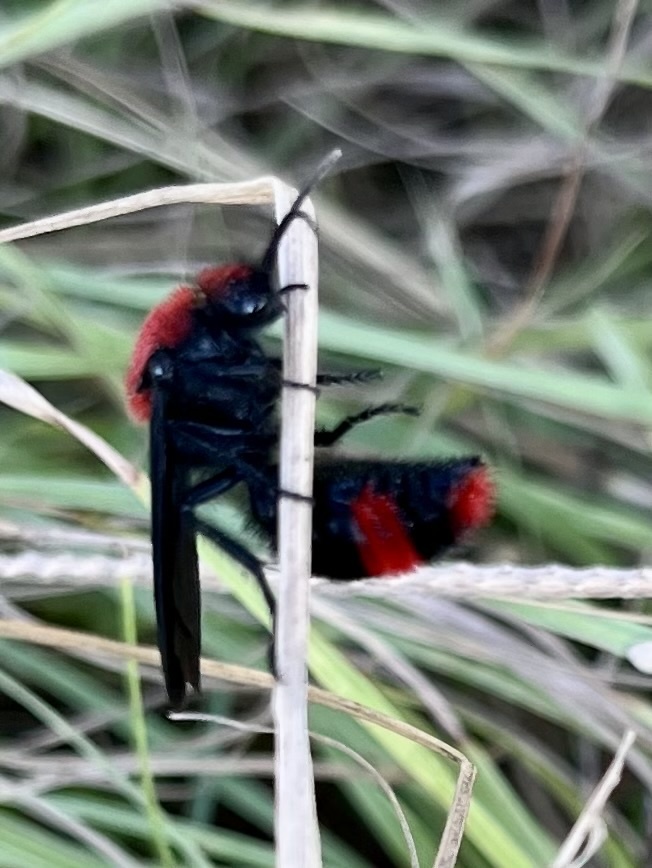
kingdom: Animalia
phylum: Arthropoda
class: Insecta
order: Hymenoptera
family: Mutillidae
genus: Dasymutilla
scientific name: Dasymutilla occidentalis
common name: Common eastern velvet ant
